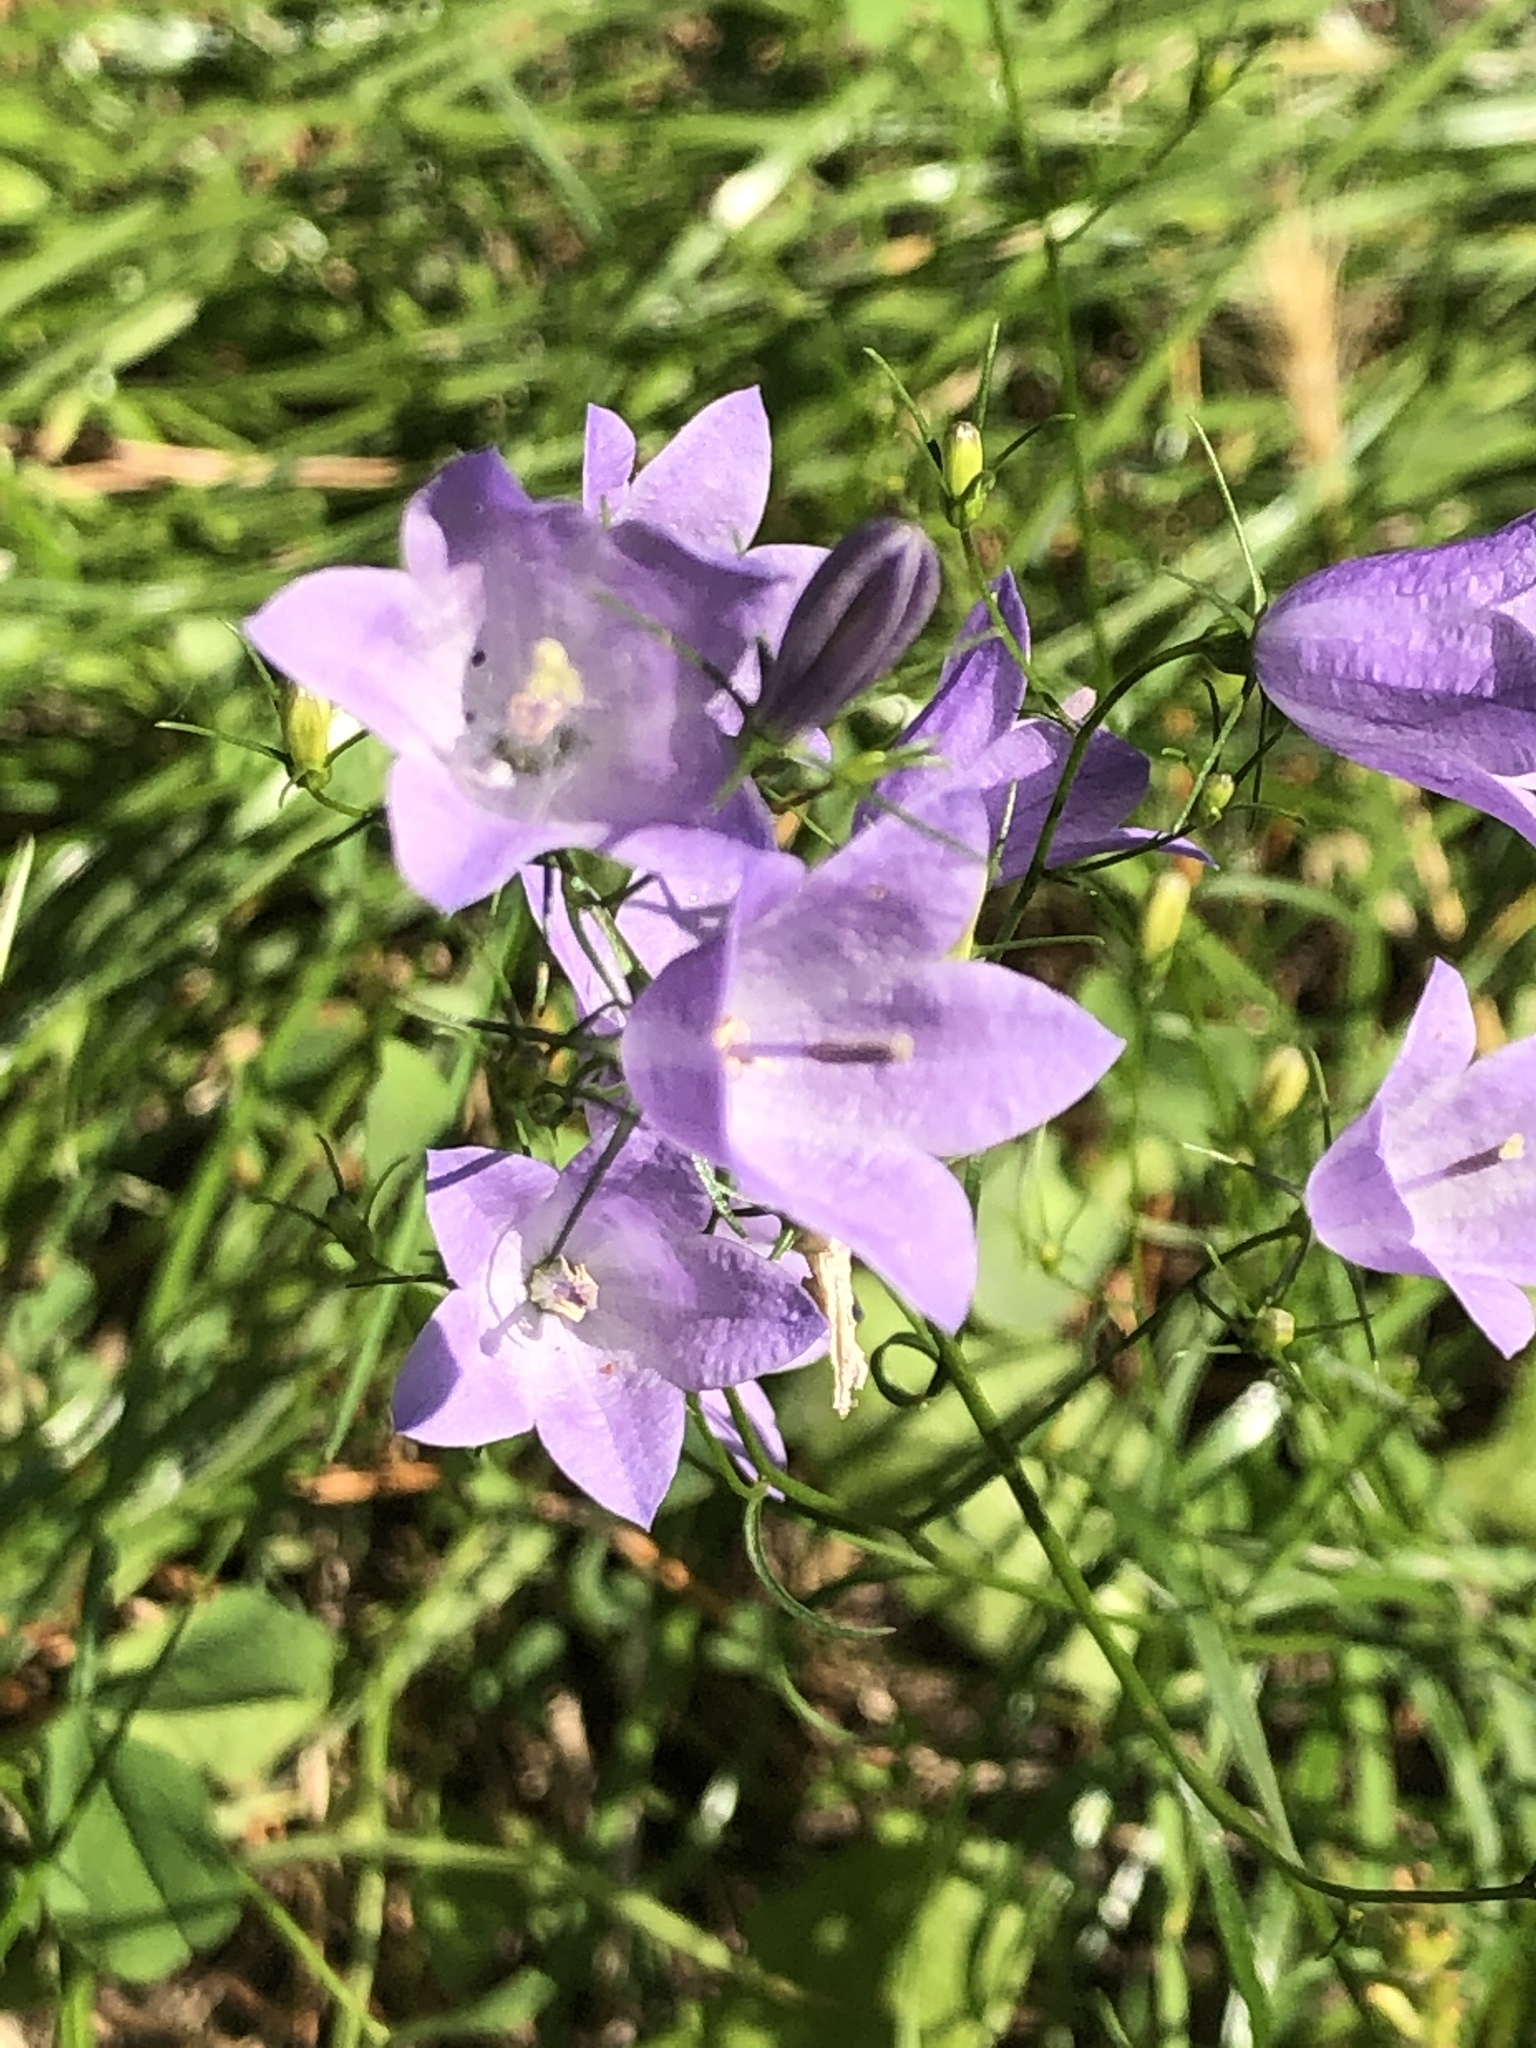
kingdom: Plantae
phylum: Tracheophyta
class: Magnoliopsida
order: Asterales
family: Campanulaceae
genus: Campanula
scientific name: Campanula rotundifolia
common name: Harebell
